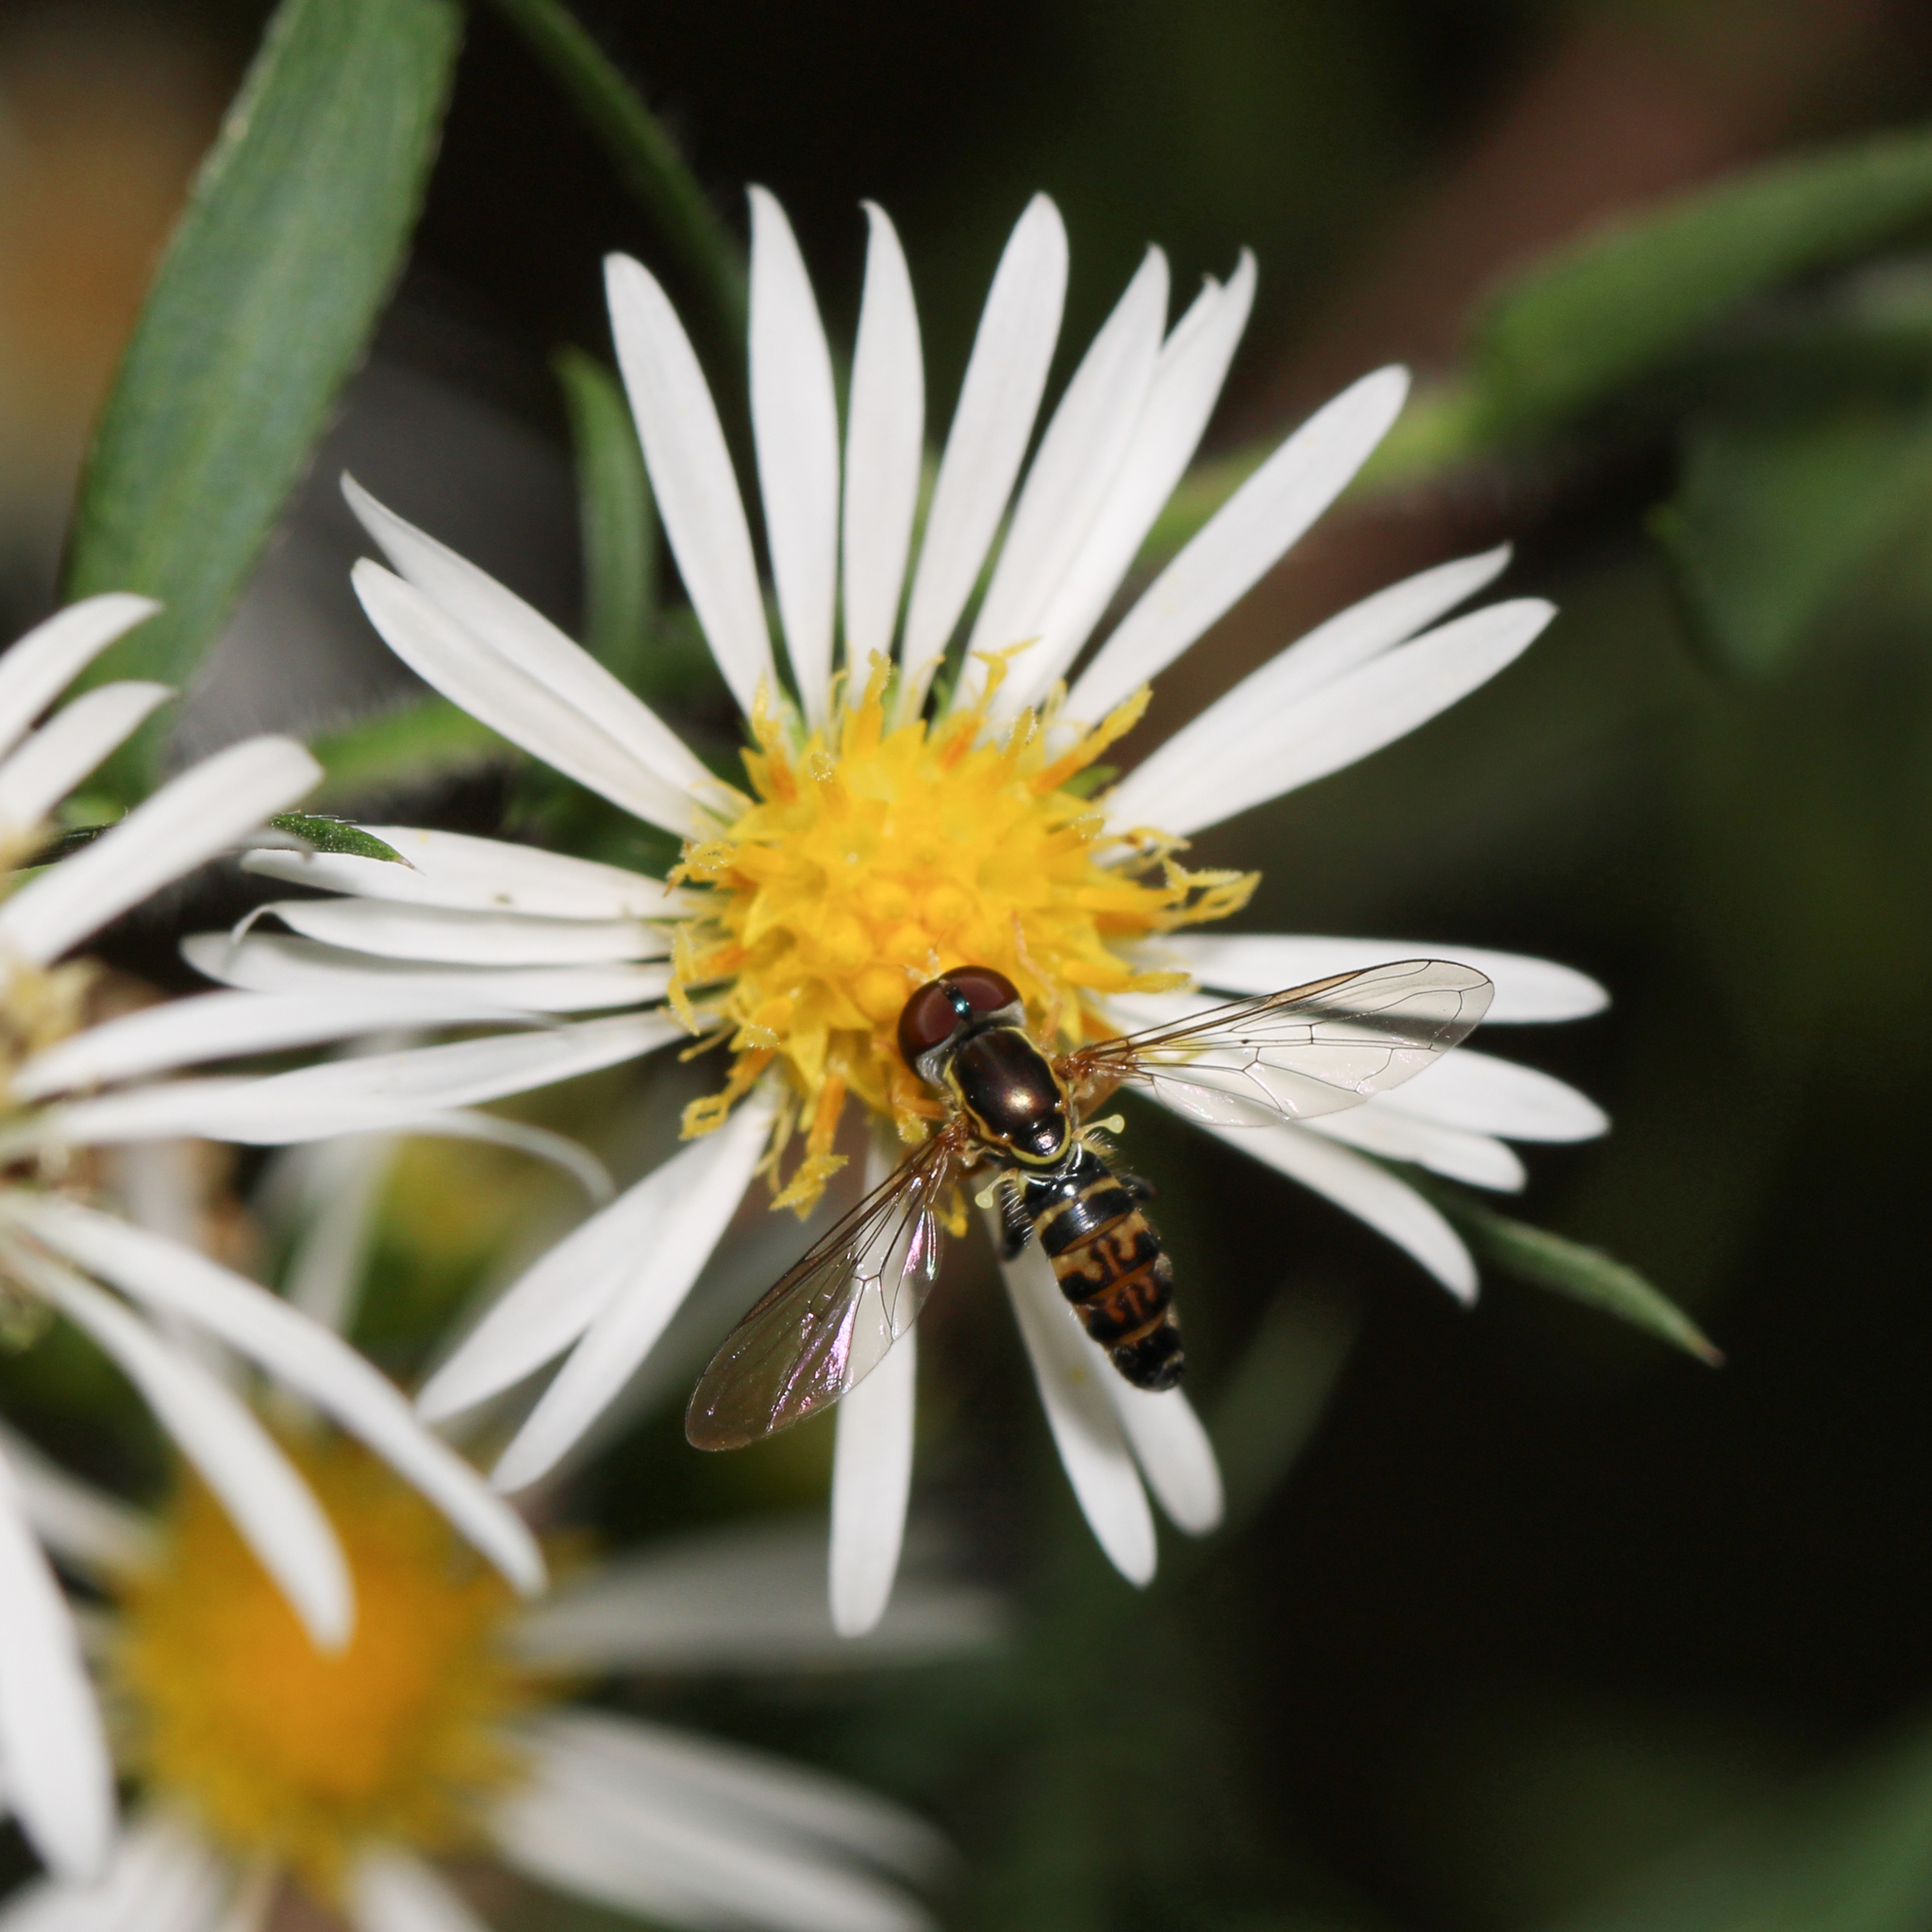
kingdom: Animalia
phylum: Arthropoda
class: Insecta
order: Diptera
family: Syrphidae
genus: Toxomerus
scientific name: Toxomerus geminatus
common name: Eastern calligrapher
